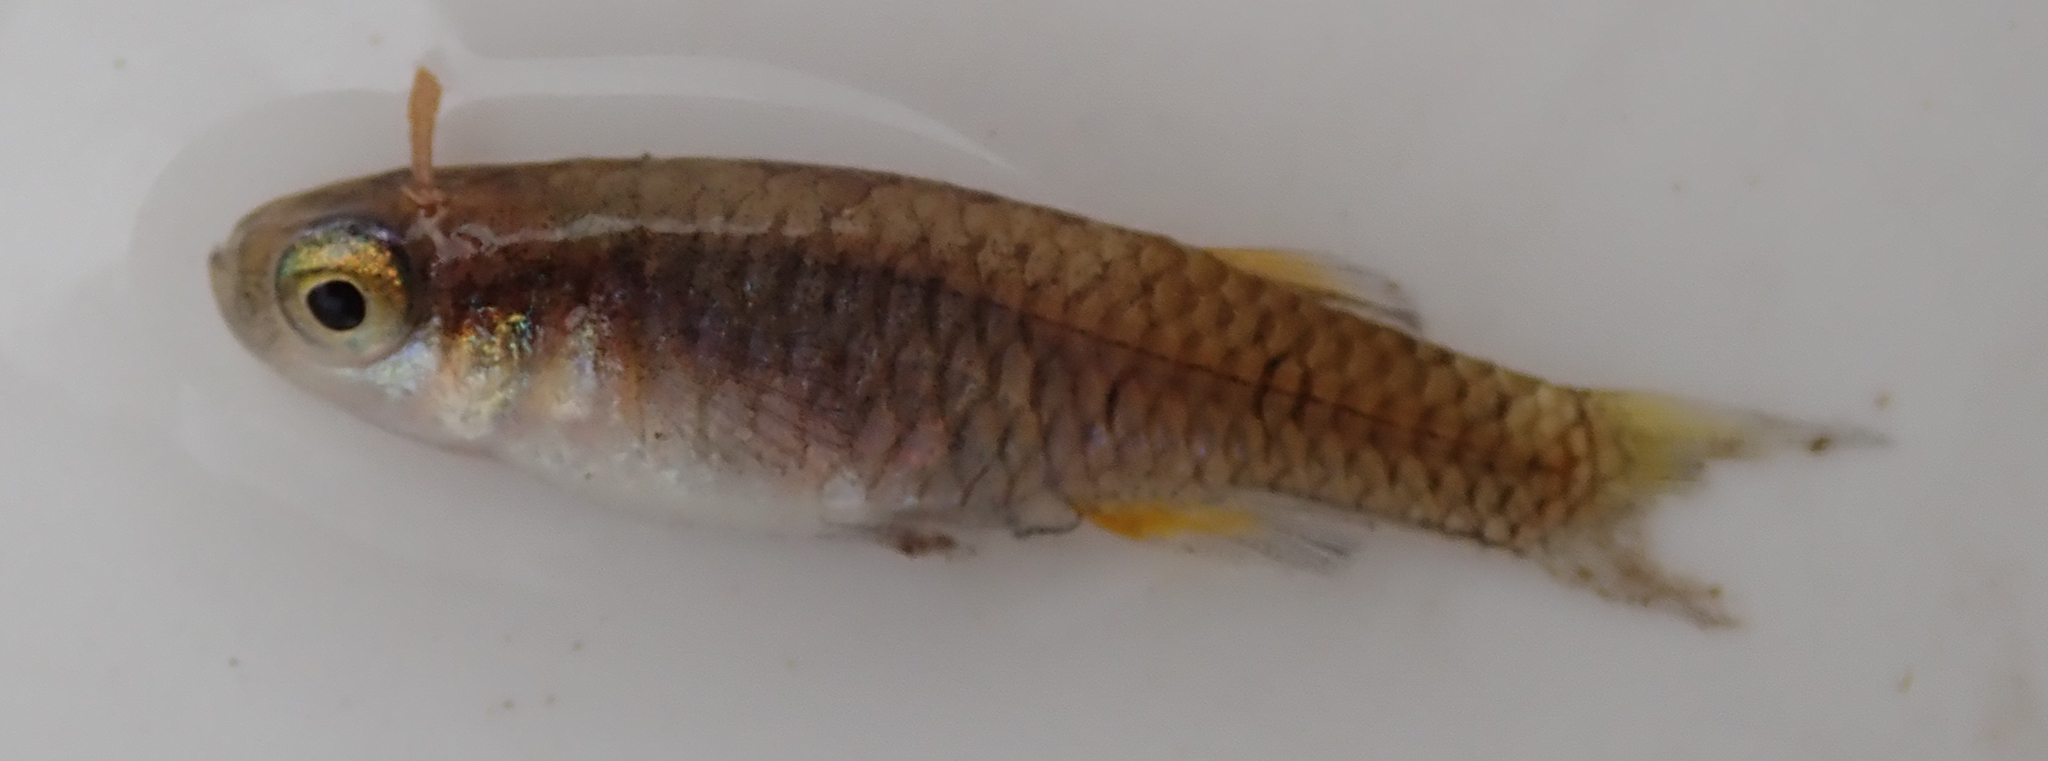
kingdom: Animalia
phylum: Chordata
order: Cyprinodontiformes
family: Poeciliidae
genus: Micropanchax
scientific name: Micropanchax hutereaui
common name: Meshscaled topminnow
